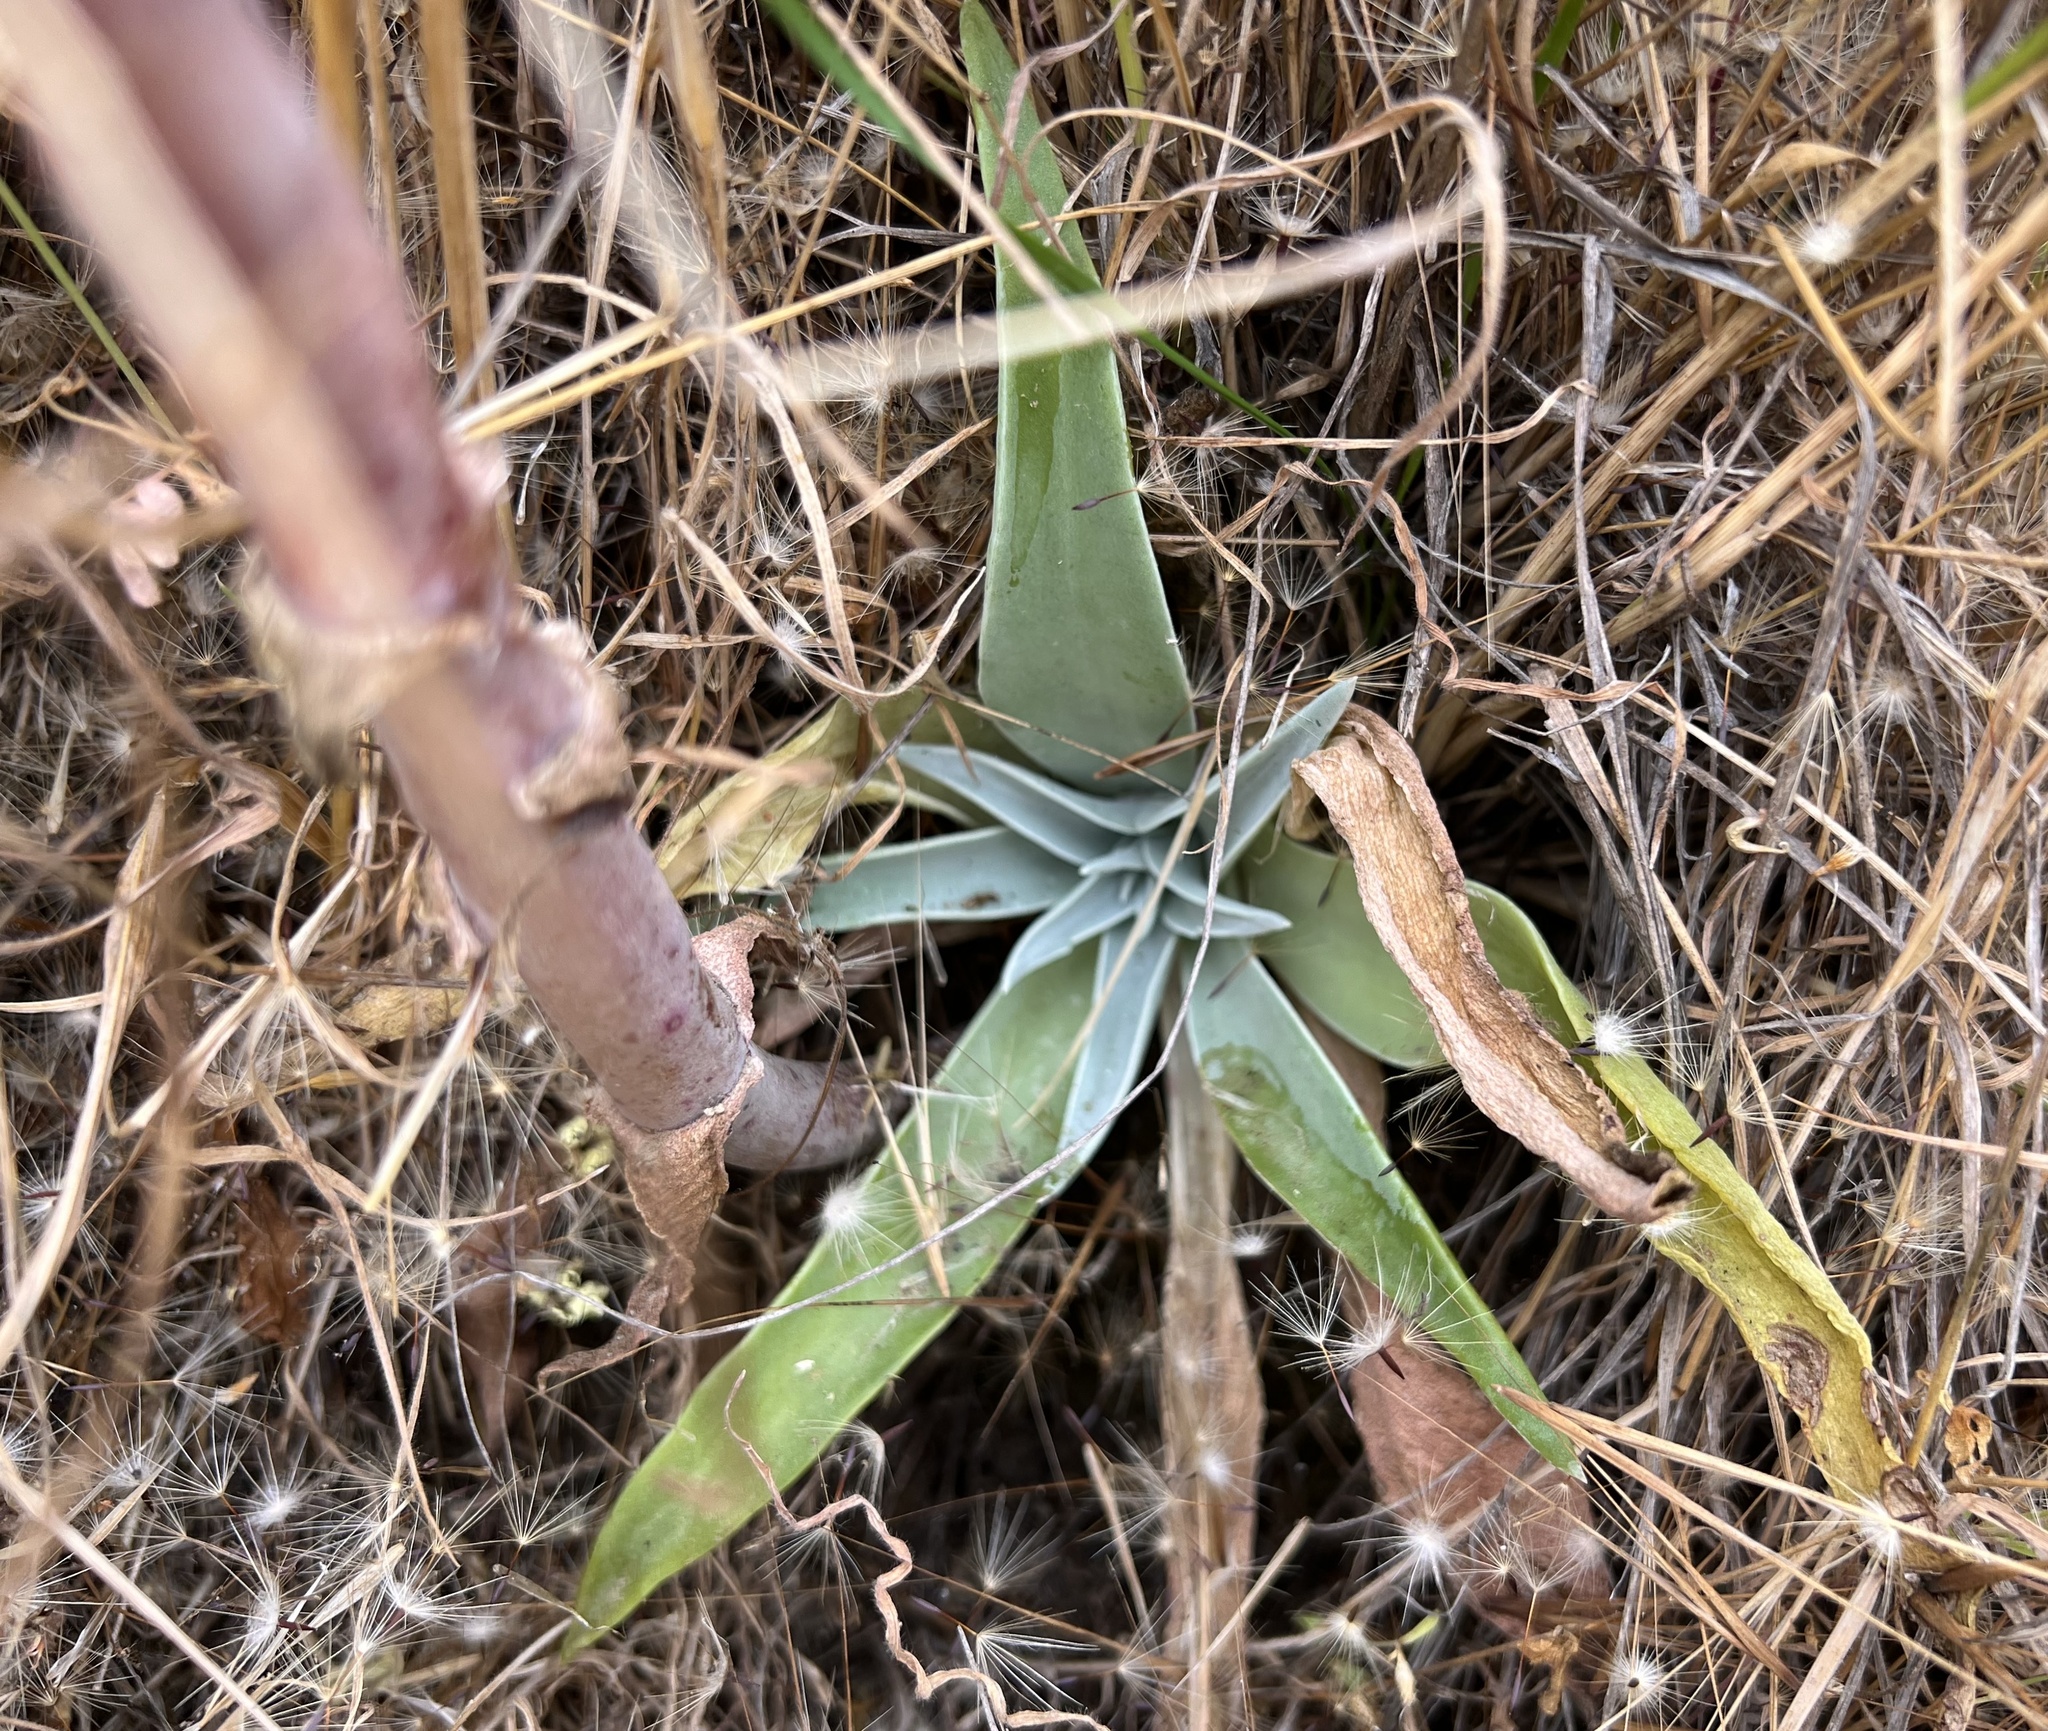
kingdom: Plantae
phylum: Tracheophyta
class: Magnoliopsida
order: Saxifragales
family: Crassulaceae
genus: Dudleya
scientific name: Dudleya lanceolata
